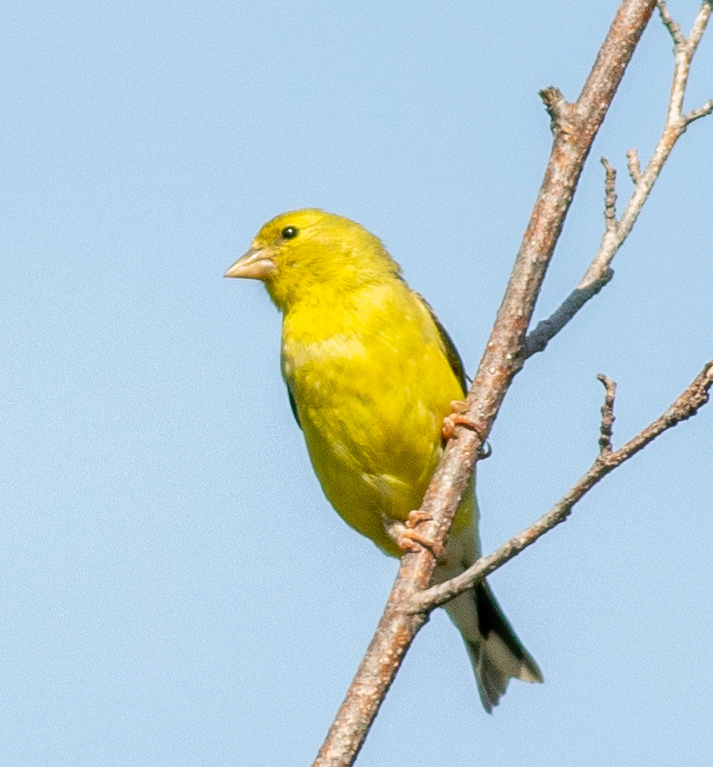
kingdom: Animalia
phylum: Chordata
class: Aves
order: Passeriformes
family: Fringillidae
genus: Spinus
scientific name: Spinus tristis
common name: American goldfinch
